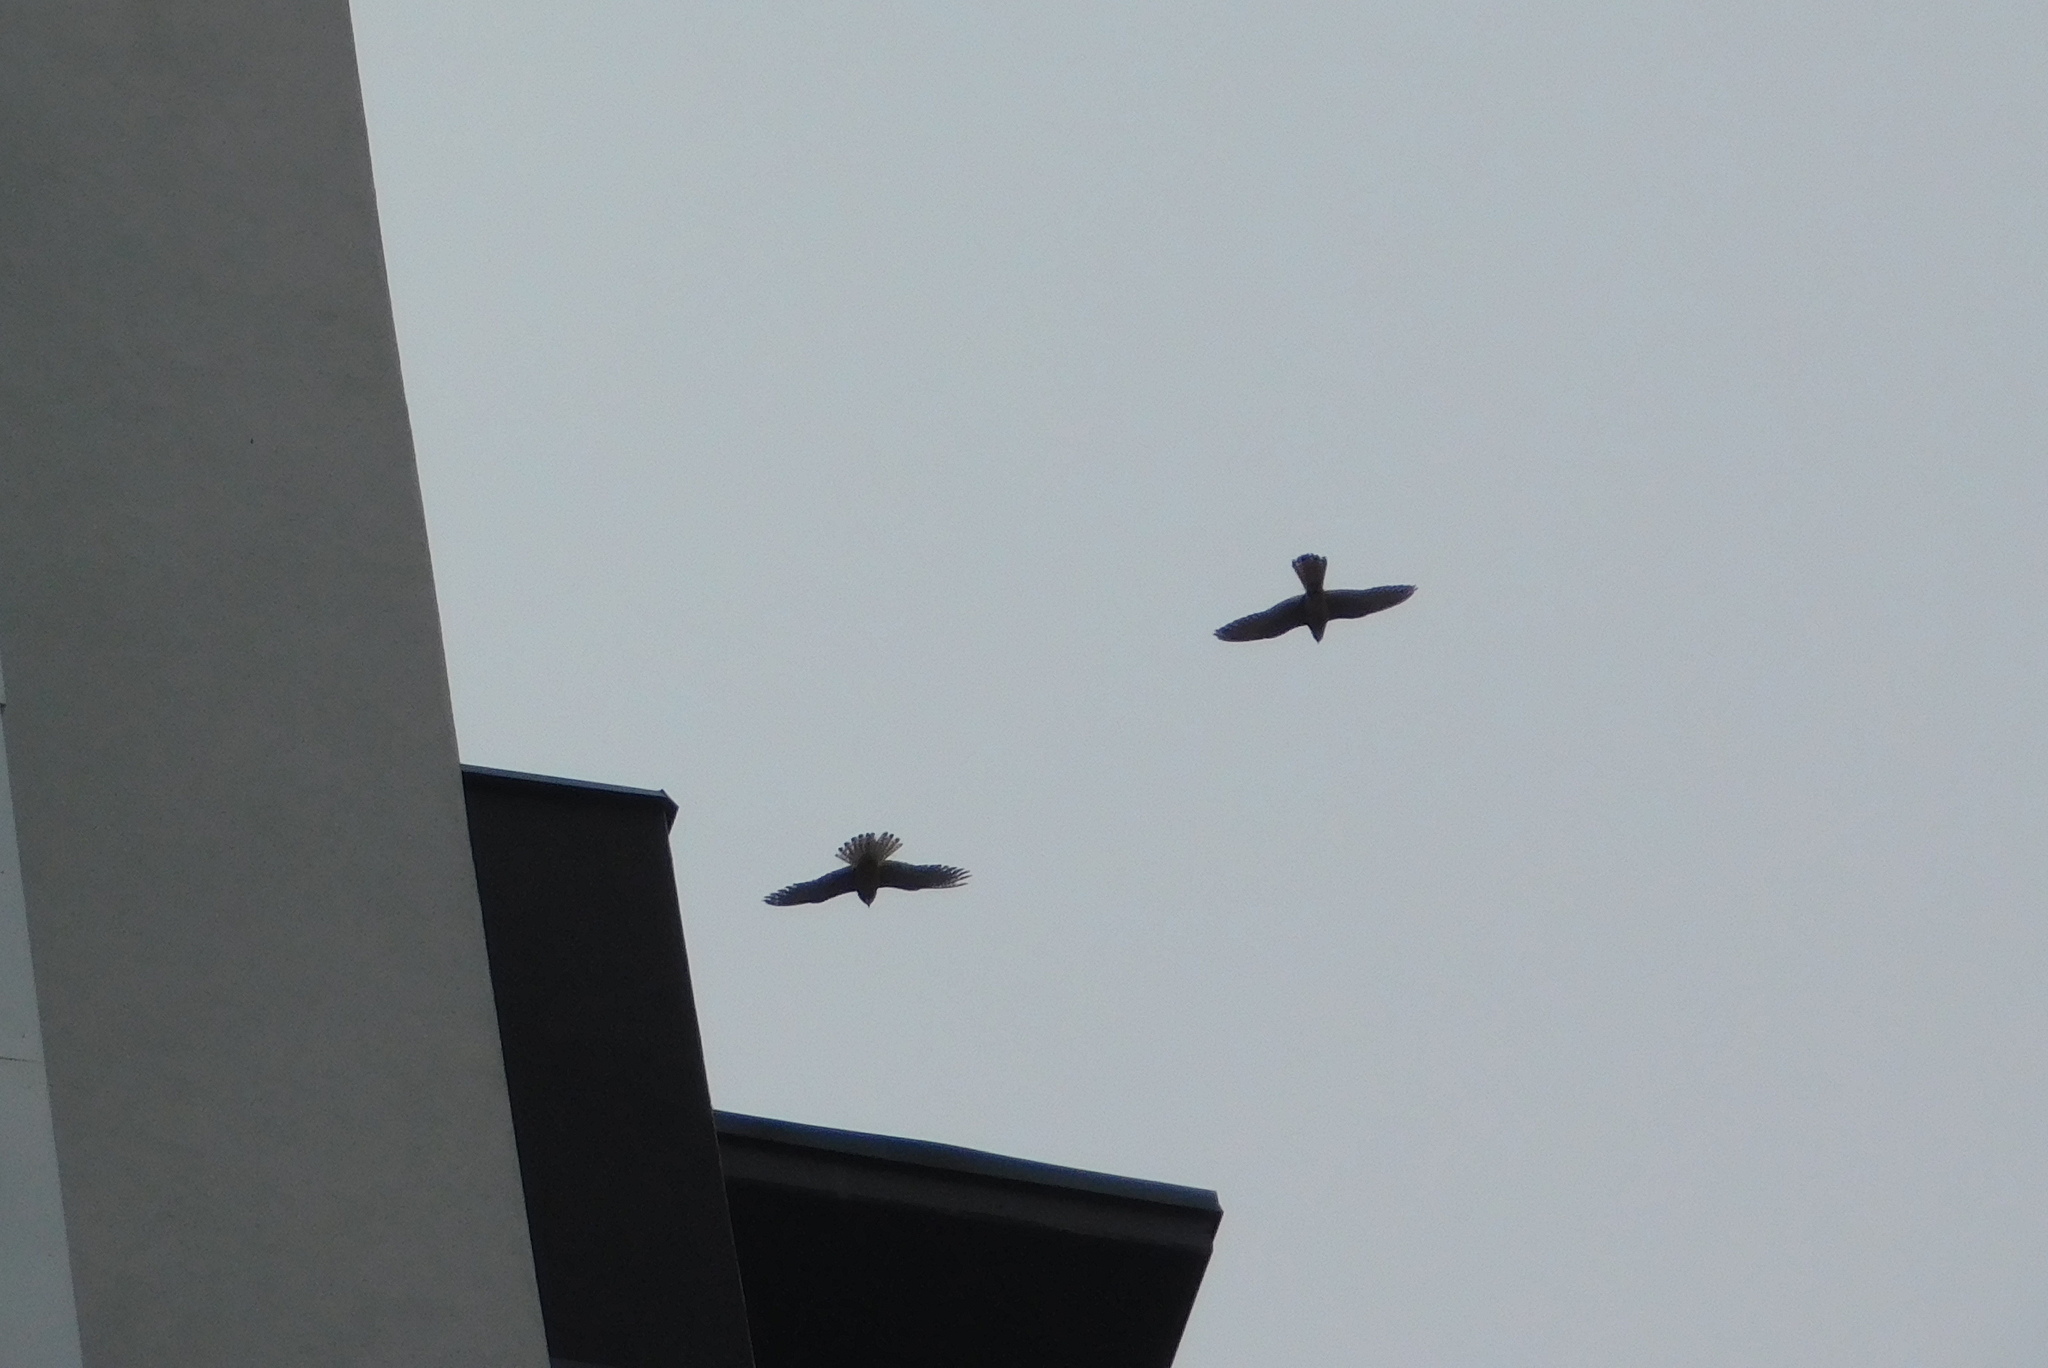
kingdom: Animalia
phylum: Chordata
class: Aves
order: Falconiformes
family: Falconidae
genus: Falco
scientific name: Falco tinnunculus
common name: Common kestrel
